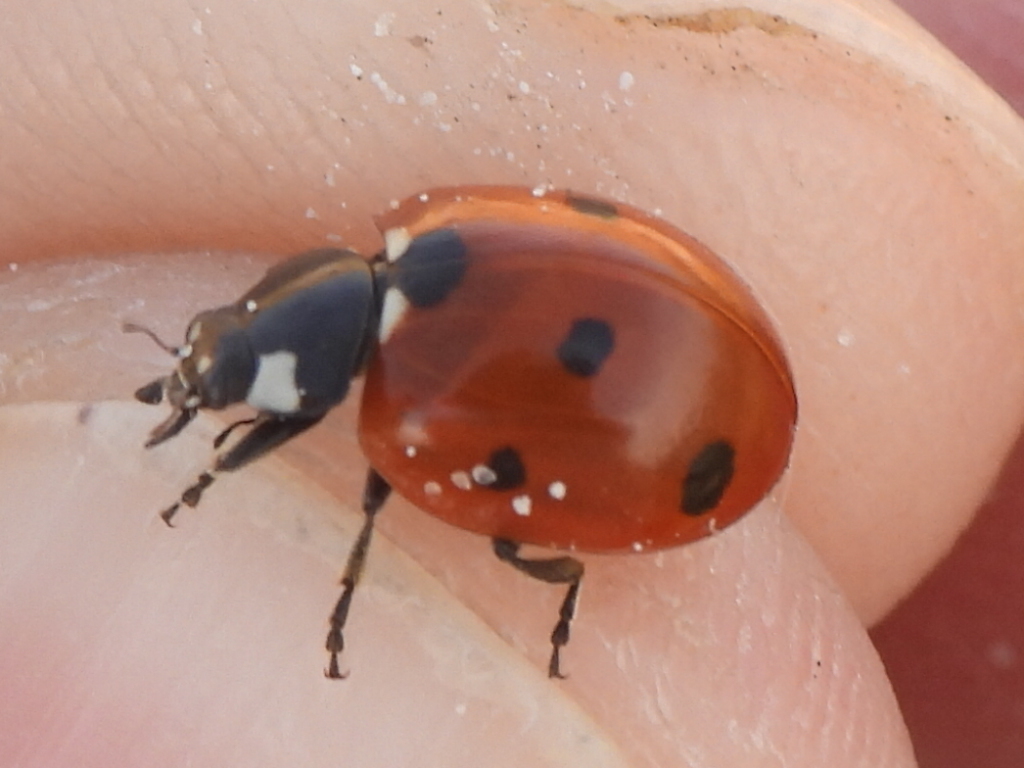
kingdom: Animalia
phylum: Arthropoda
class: Insecta
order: Coleoptera
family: Coccinellidae
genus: Coccinella
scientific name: Coccinella septempunctata
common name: Sevenspotted lady beetle
